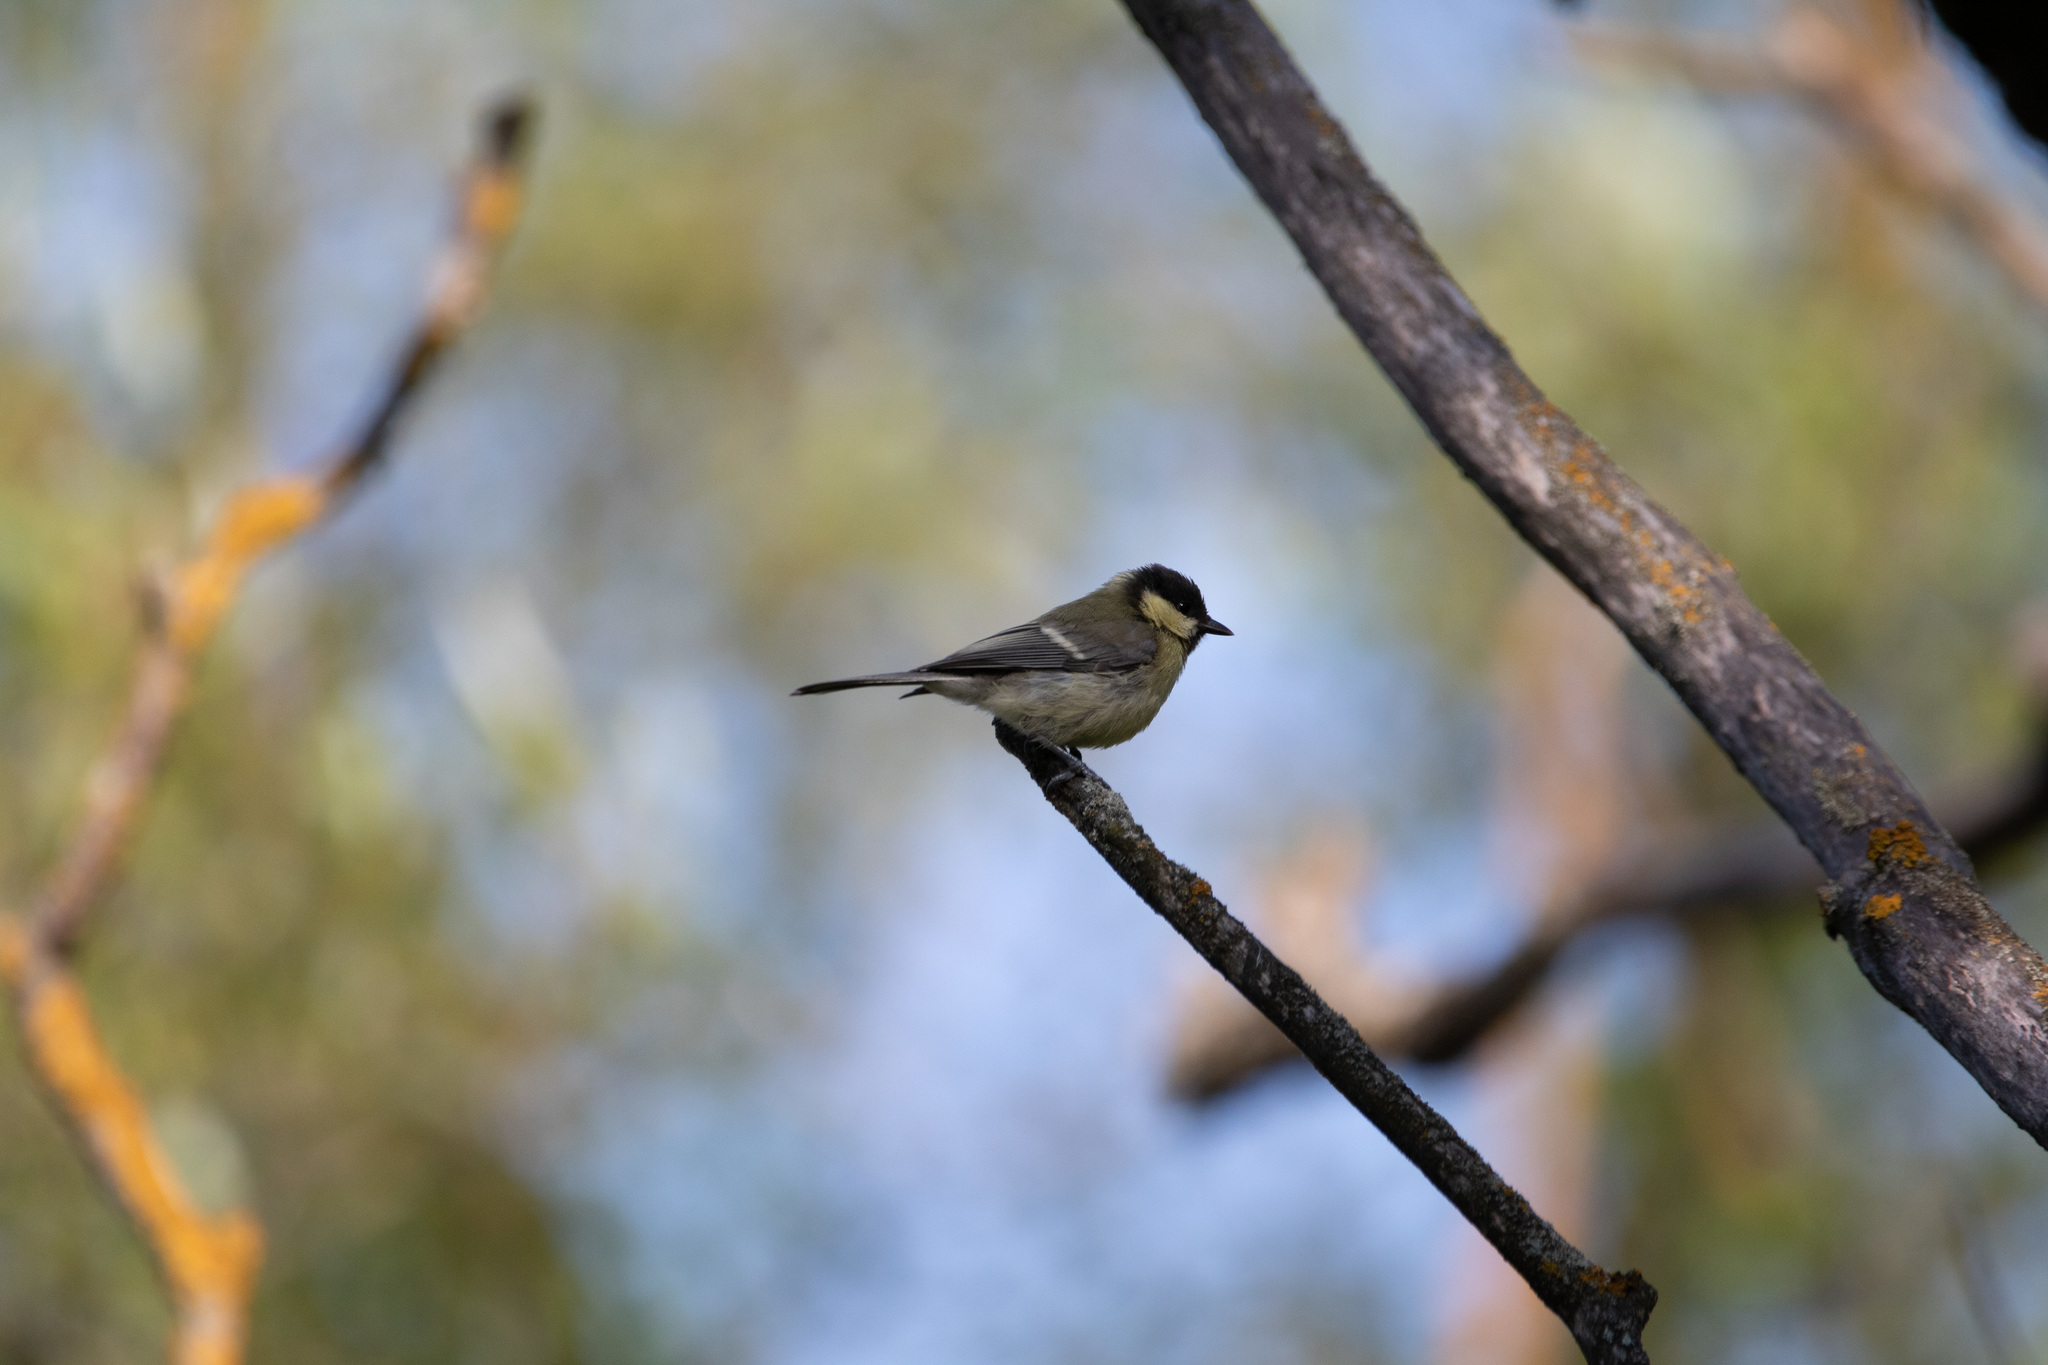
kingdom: Animalia
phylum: Chordata
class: Aves
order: Passeriformes
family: Paridae
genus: Parus
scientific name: Parus major
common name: Great tit
